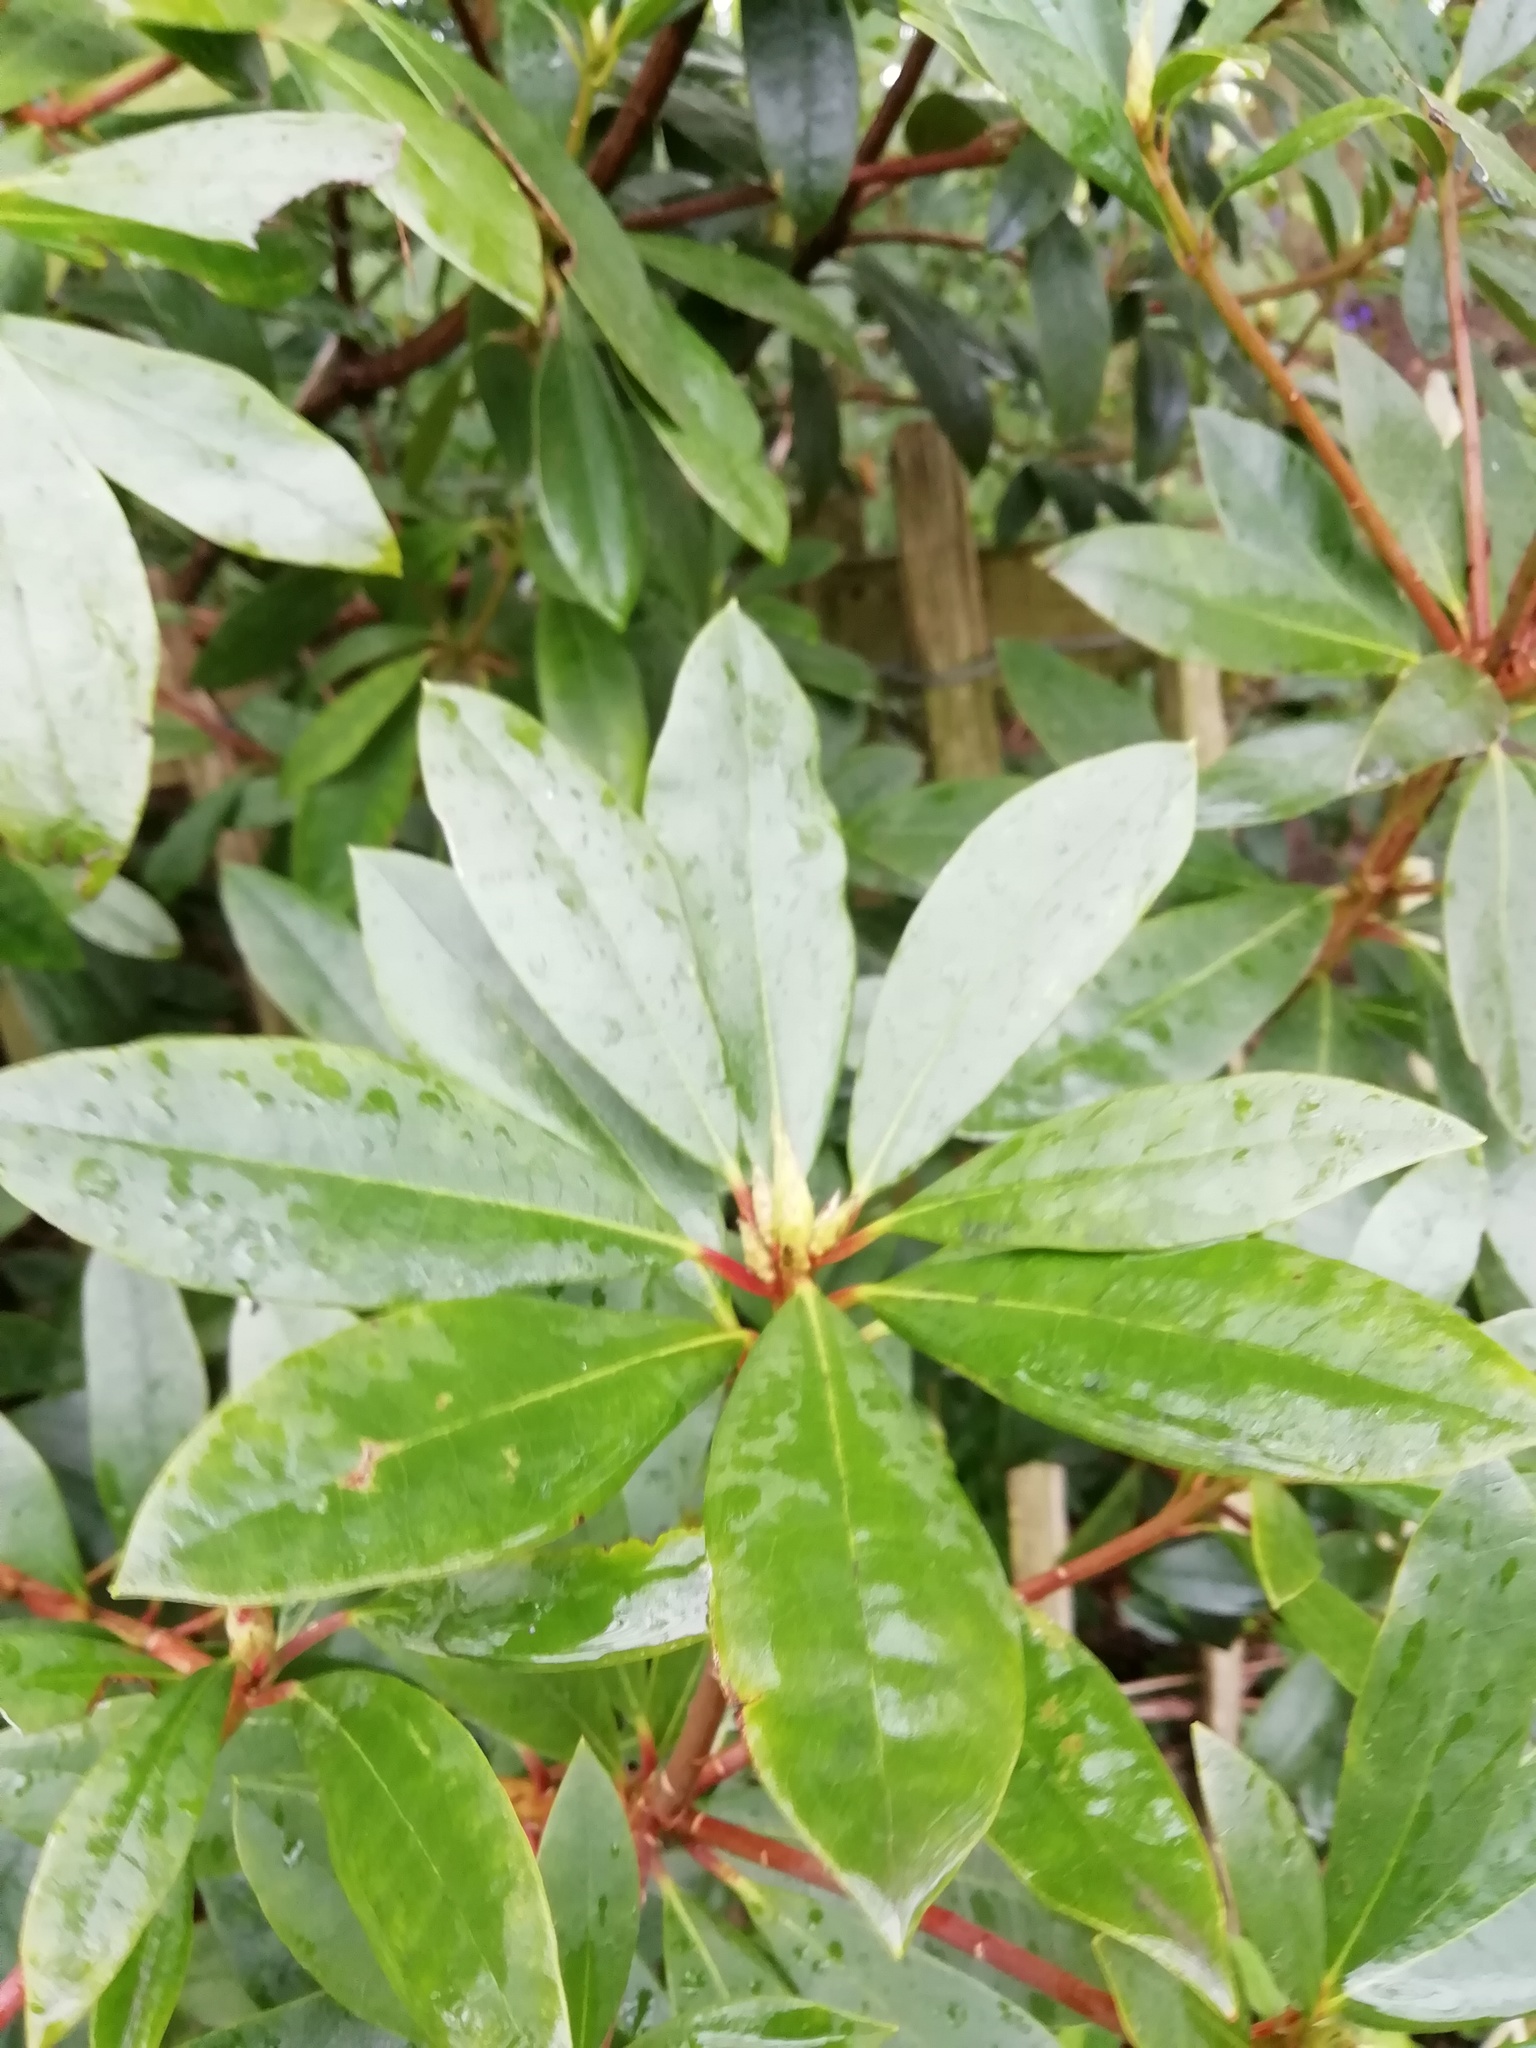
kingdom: Plantae
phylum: Tracheophyta
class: Magnoliopsida
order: Ericales
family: Ericaceae
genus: Rhododendron
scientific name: Rhododendron ponticum
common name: Rhododendron
